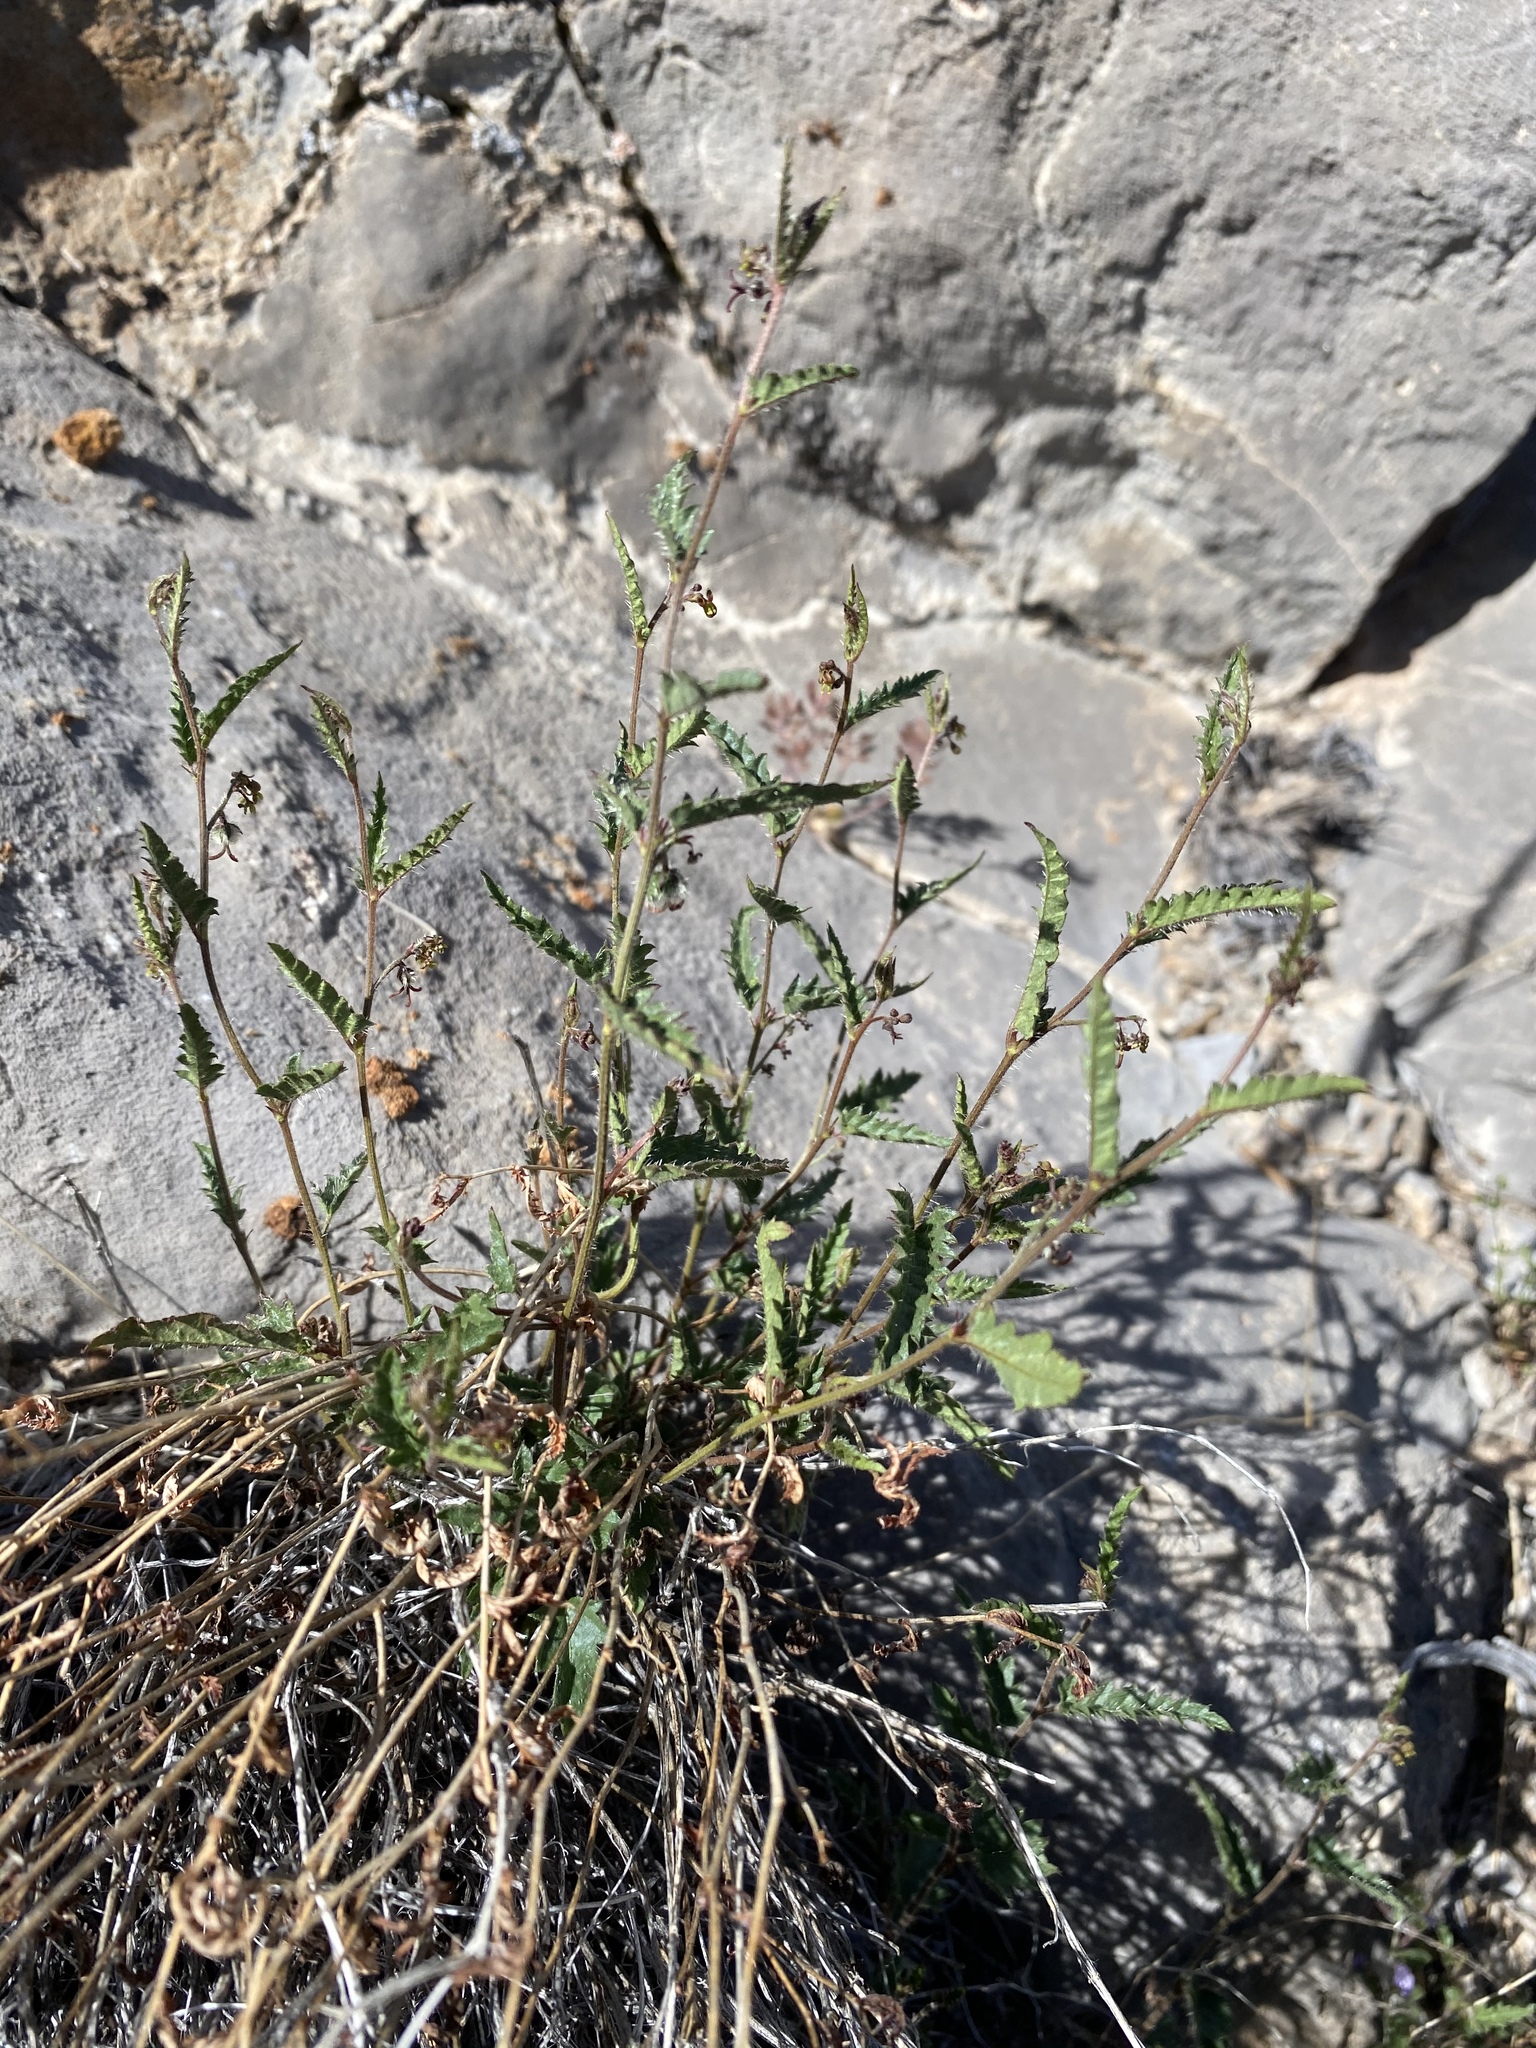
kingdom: Plantae
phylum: Tracheophyta
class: Magnoliopsida
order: Malpighiales
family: Euphorbiaceae
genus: Tragia
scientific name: Tragia ramosa
